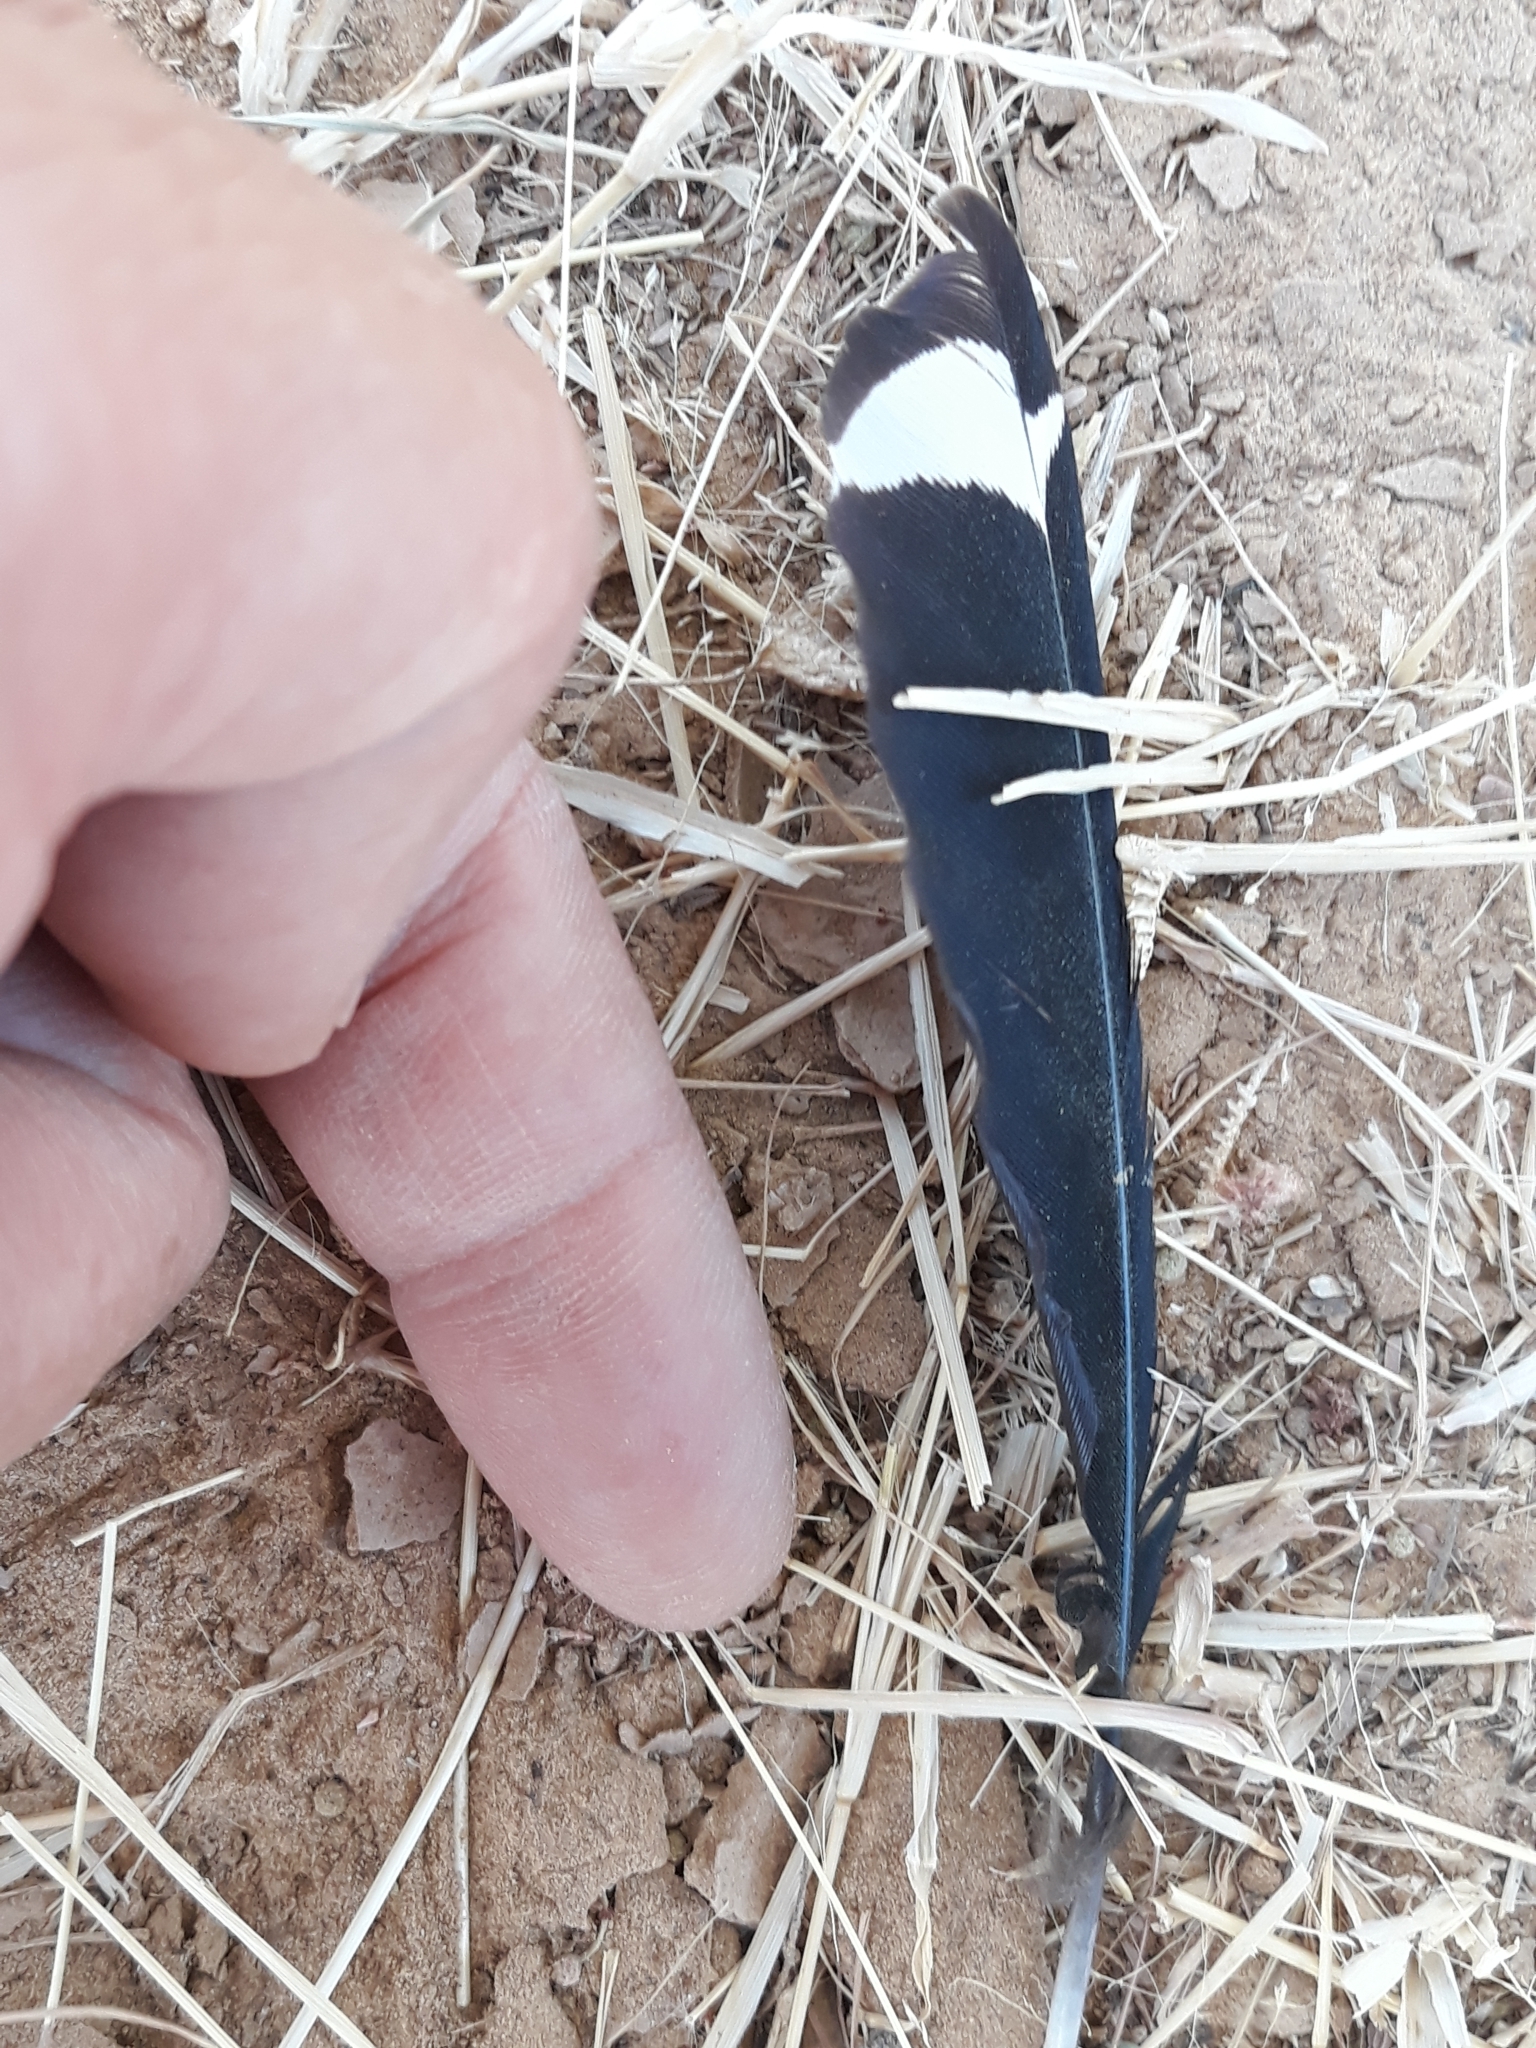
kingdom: Animalia
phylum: Chordata
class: Aves
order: Bucerotiformes
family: Upupidae
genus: Upupa
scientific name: Upupa epops
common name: Eurasian hoopoe
